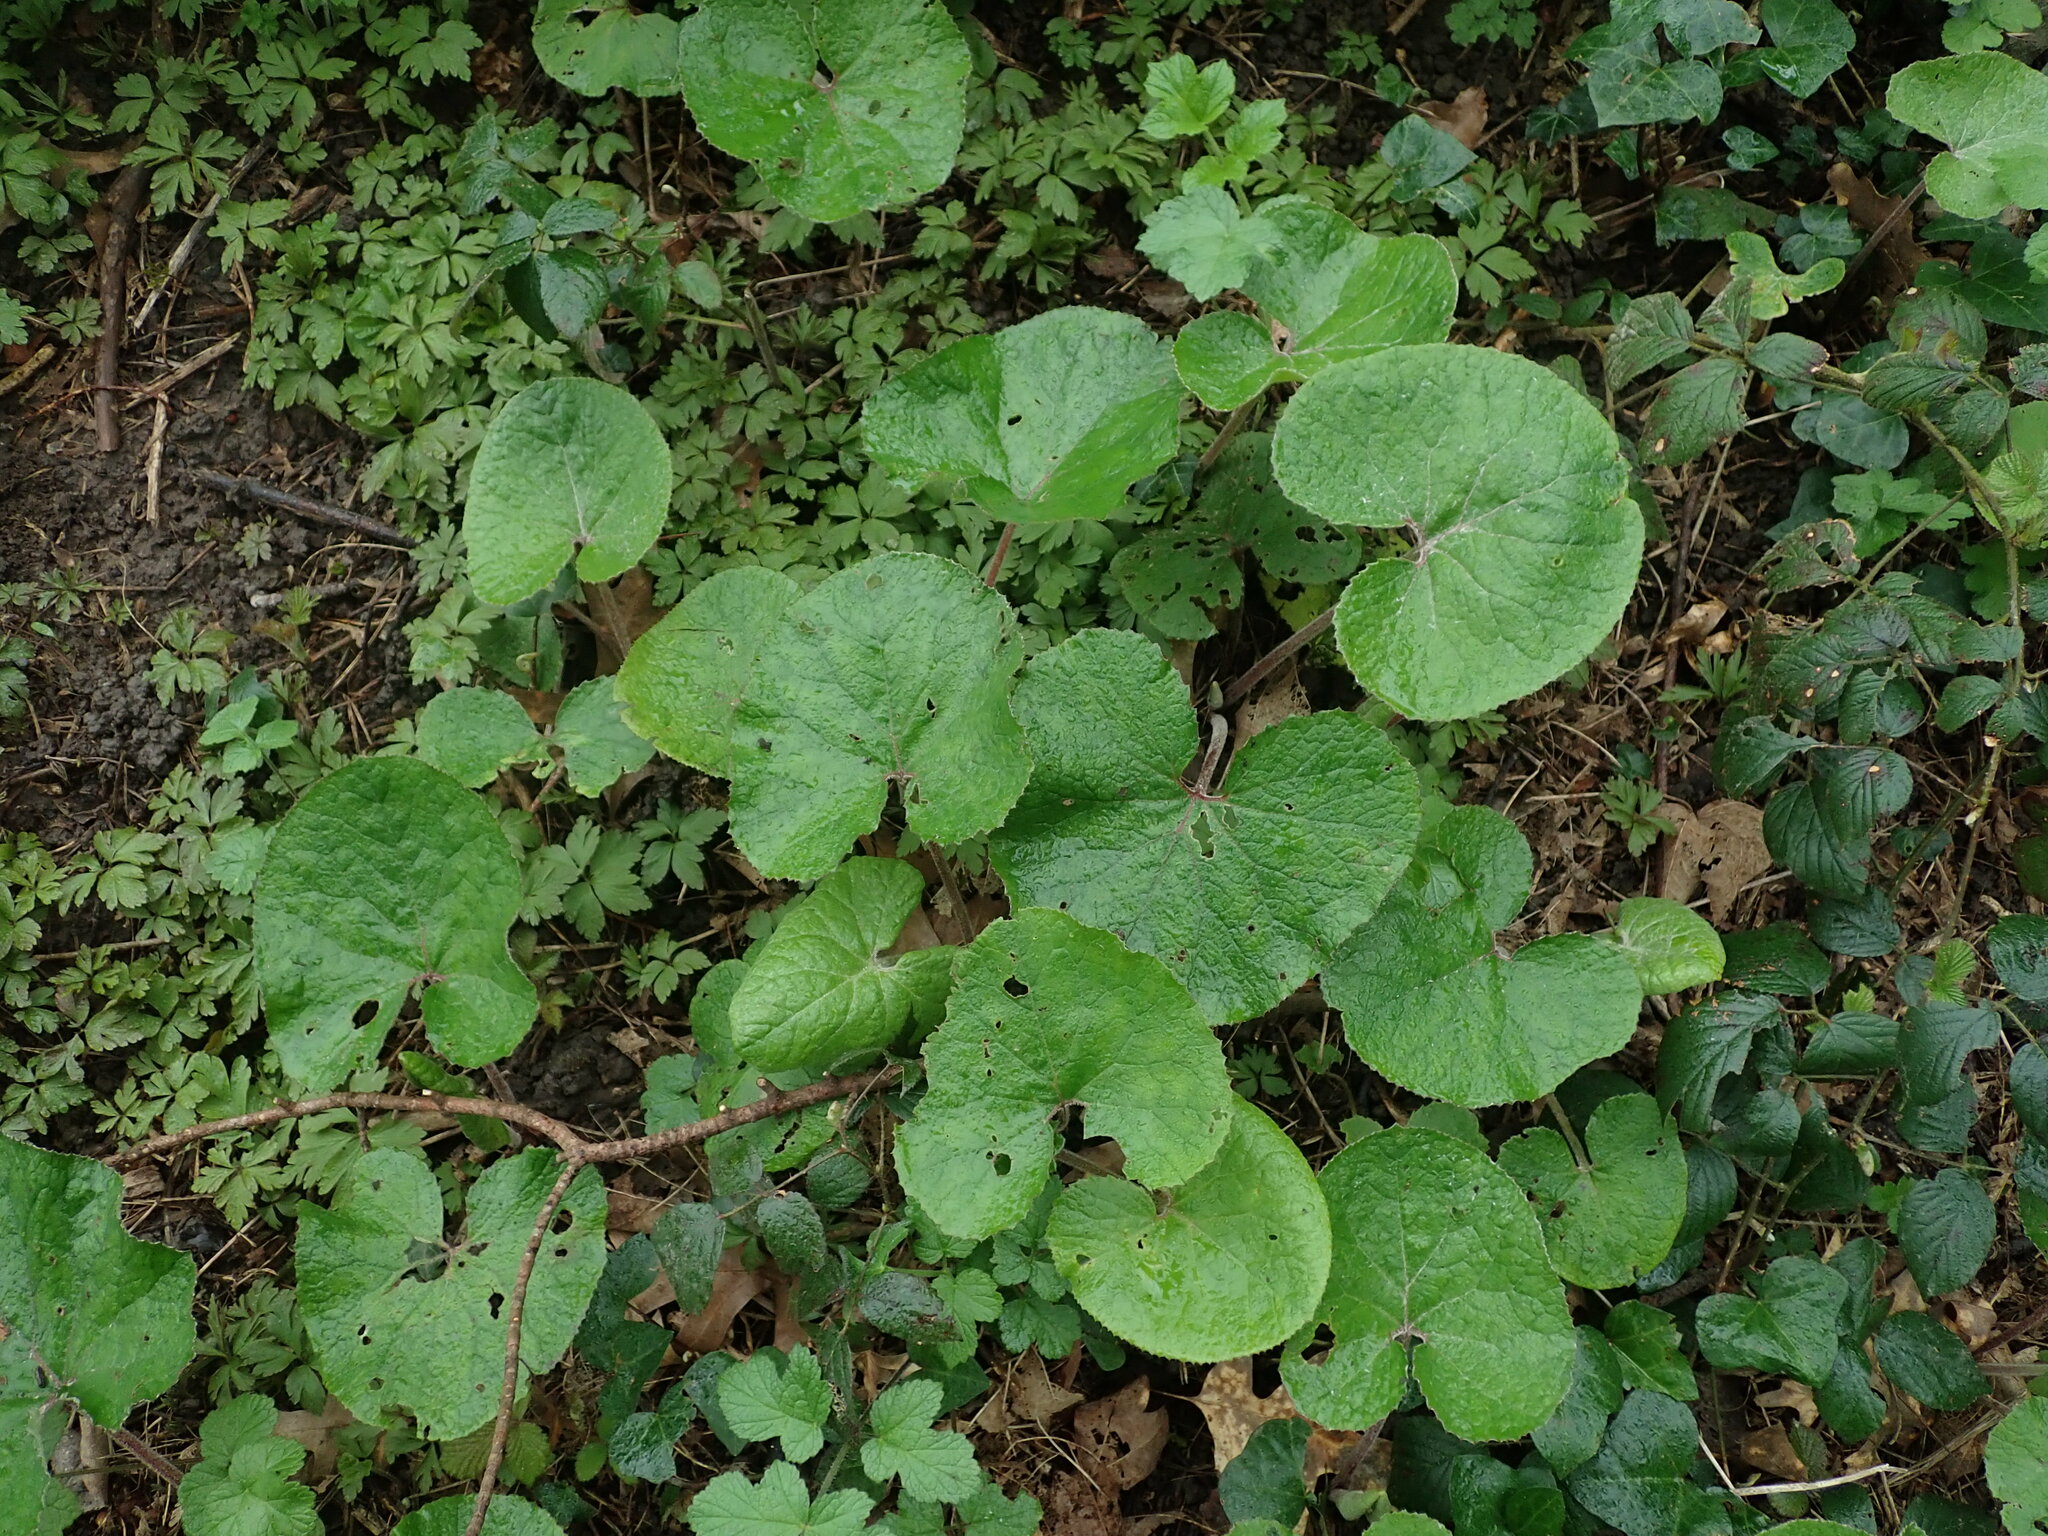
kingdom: Plantae
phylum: Tracheophyta
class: Magnoliopsida
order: Asterales
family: Asteraceae
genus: Petasites
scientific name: Petasites pyrenaicus
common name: Winter heliotrope
